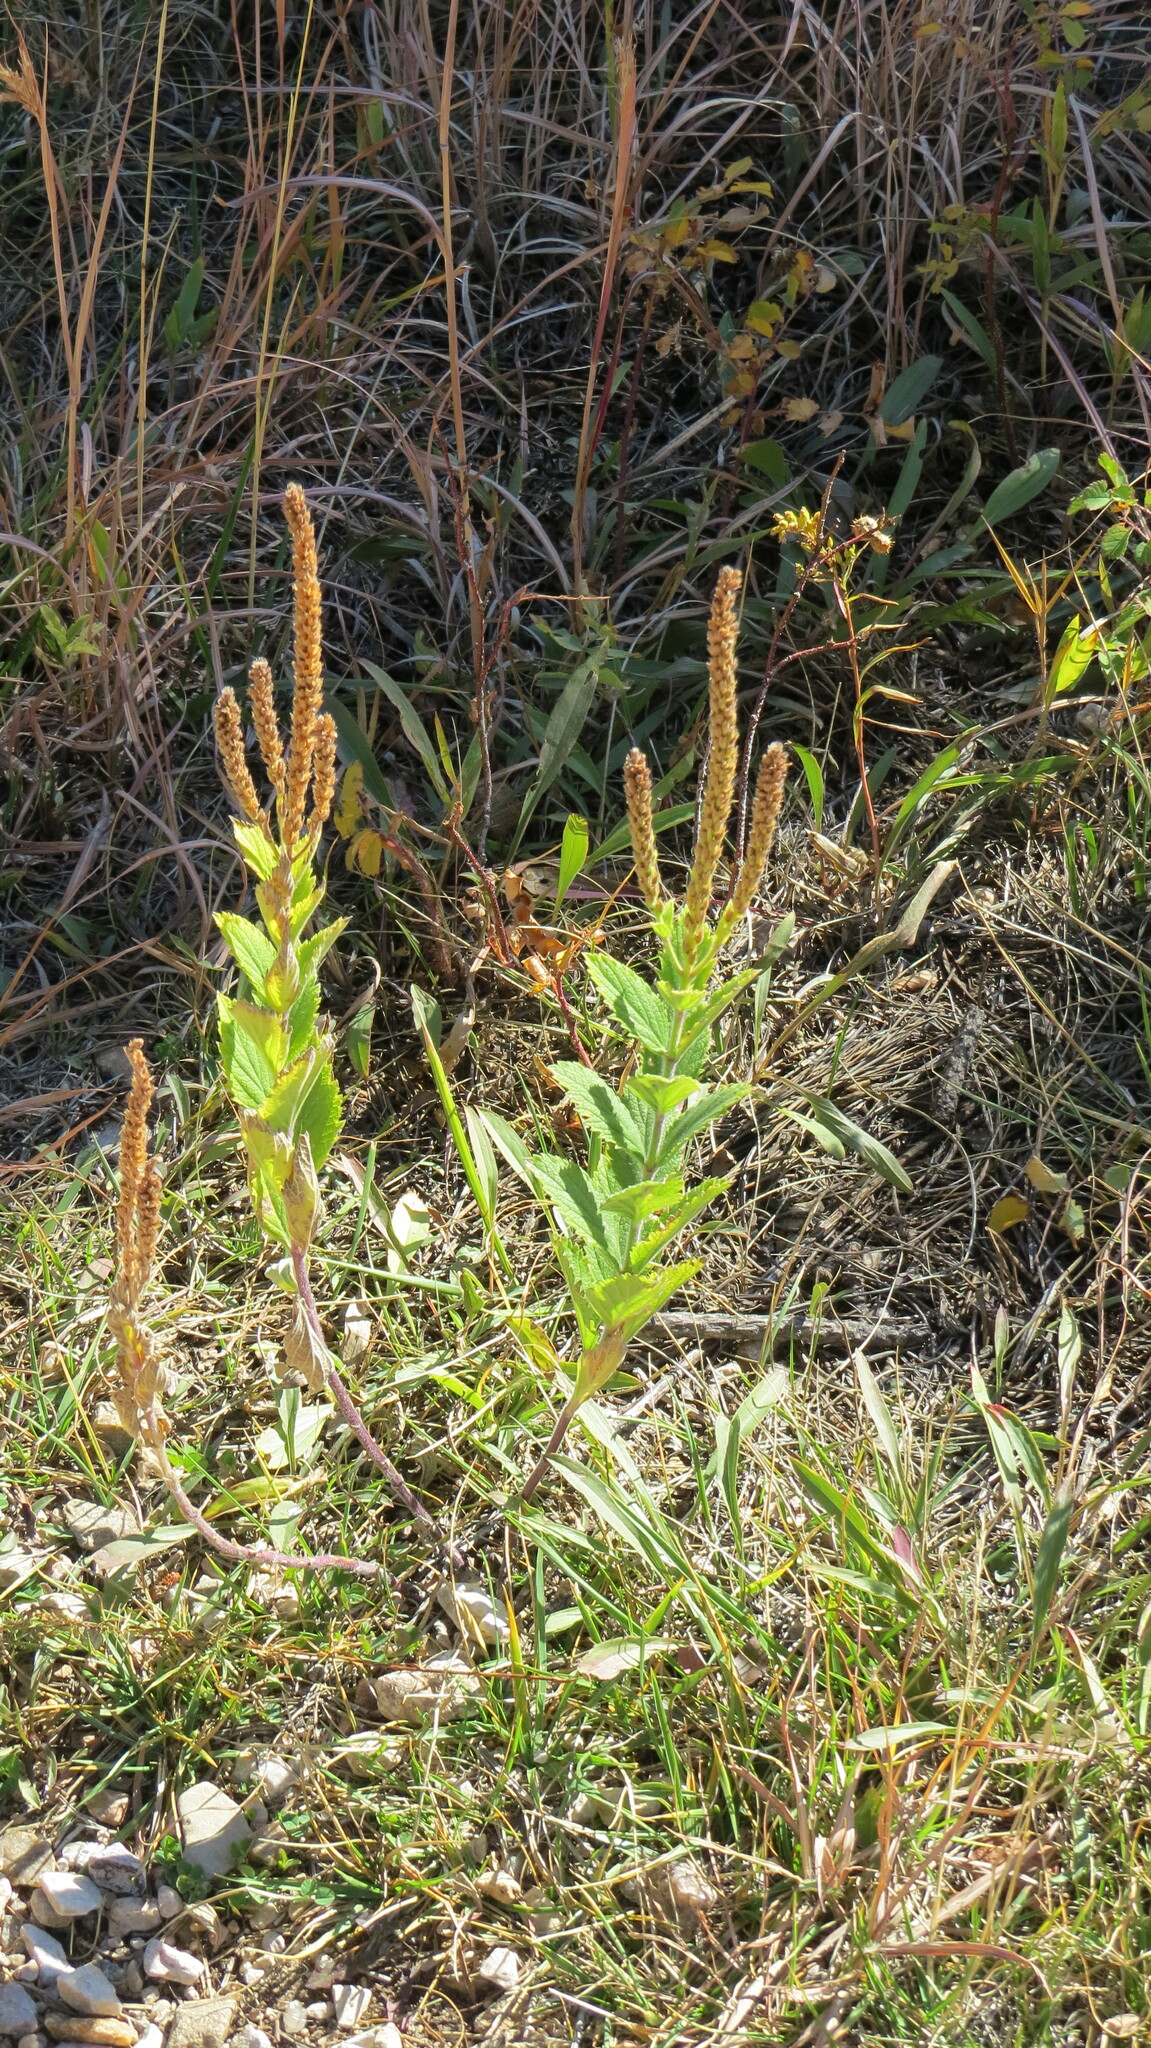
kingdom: Plantae
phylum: Tracheophyta
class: Magnoliopsida
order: Lamiales
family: Verbenaceae
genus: Verbena
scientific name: Verbena stricta
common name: Hoary vervain
